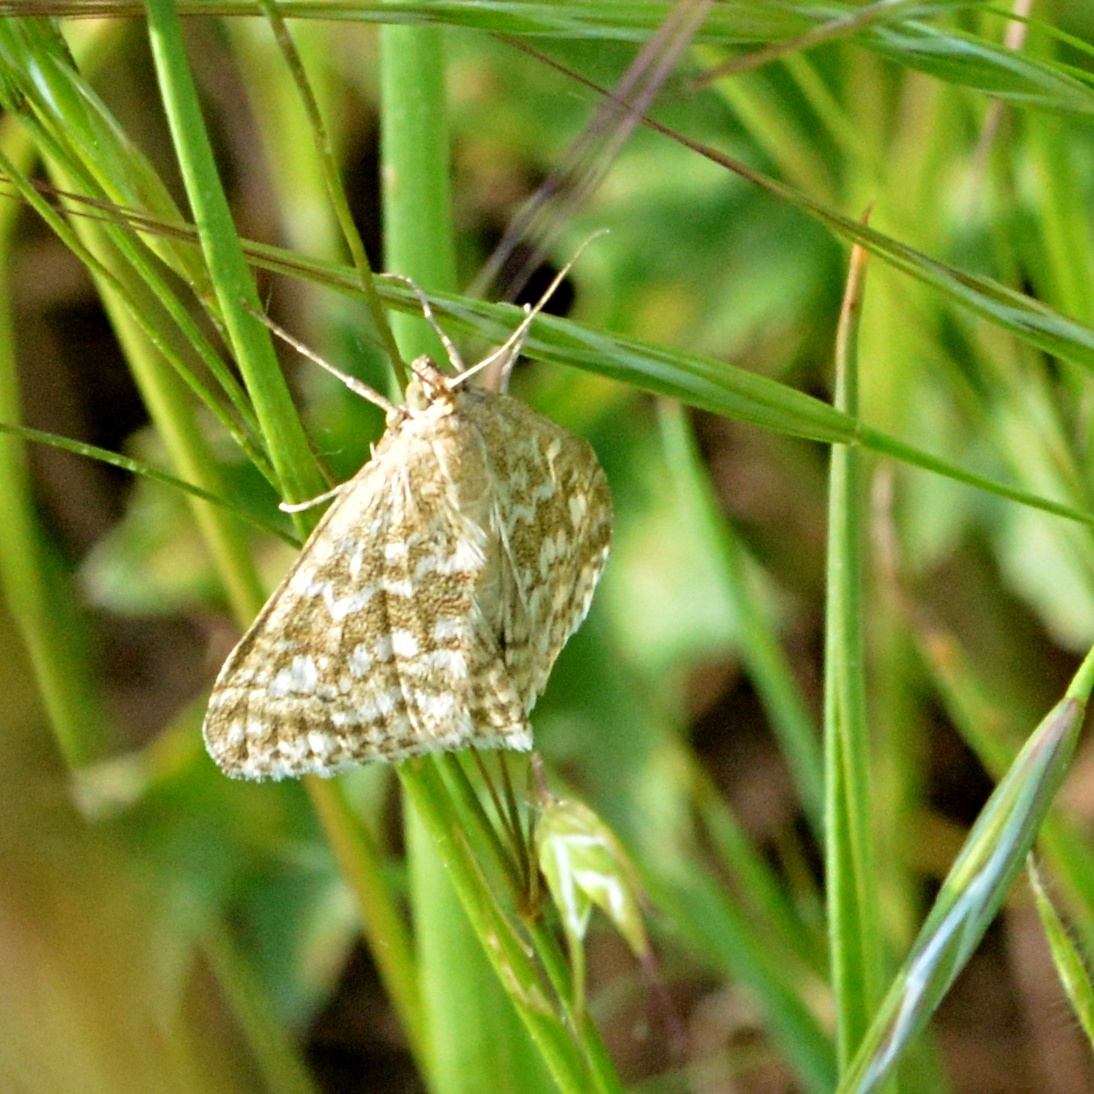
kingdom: Animalia
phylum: Arthropoda
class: Insecta
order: Lepidoptera
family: Crambidae
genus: Evergestis
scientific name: Evergestis frumentalis
